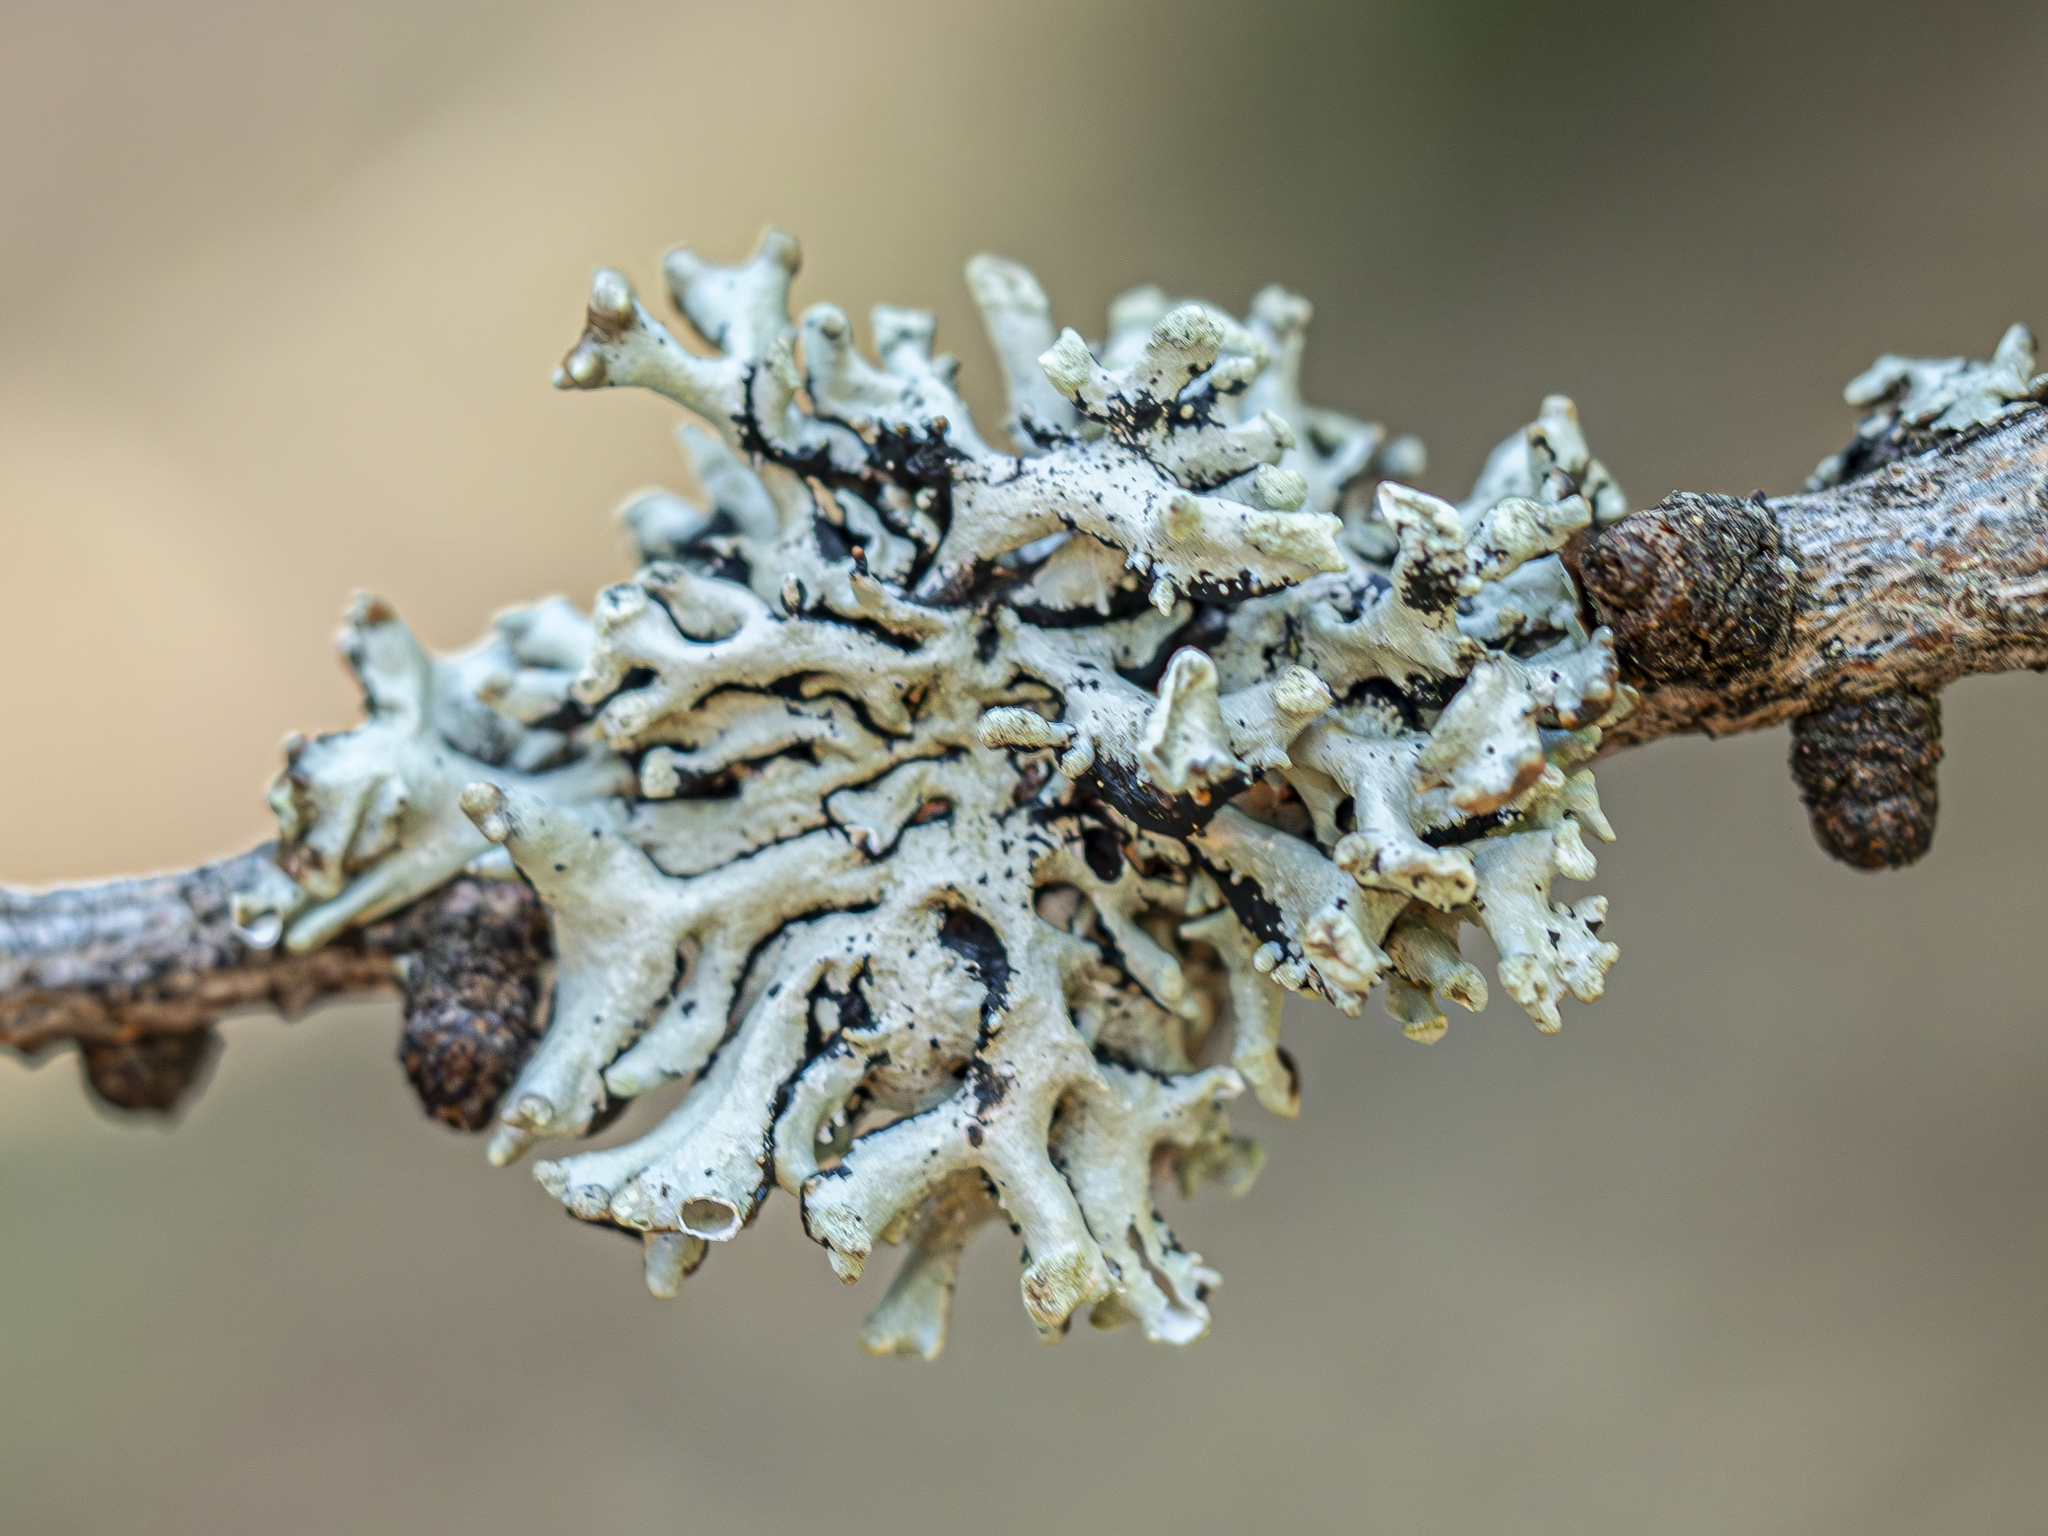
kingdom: Fungi
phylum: Ascomycota
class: Lecanoromycetes
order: Lecanorales
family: Parmeliaceae
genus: Hypogymnia
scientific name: Hypogymnia tubulosa
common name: Powder-headed tube lichen
